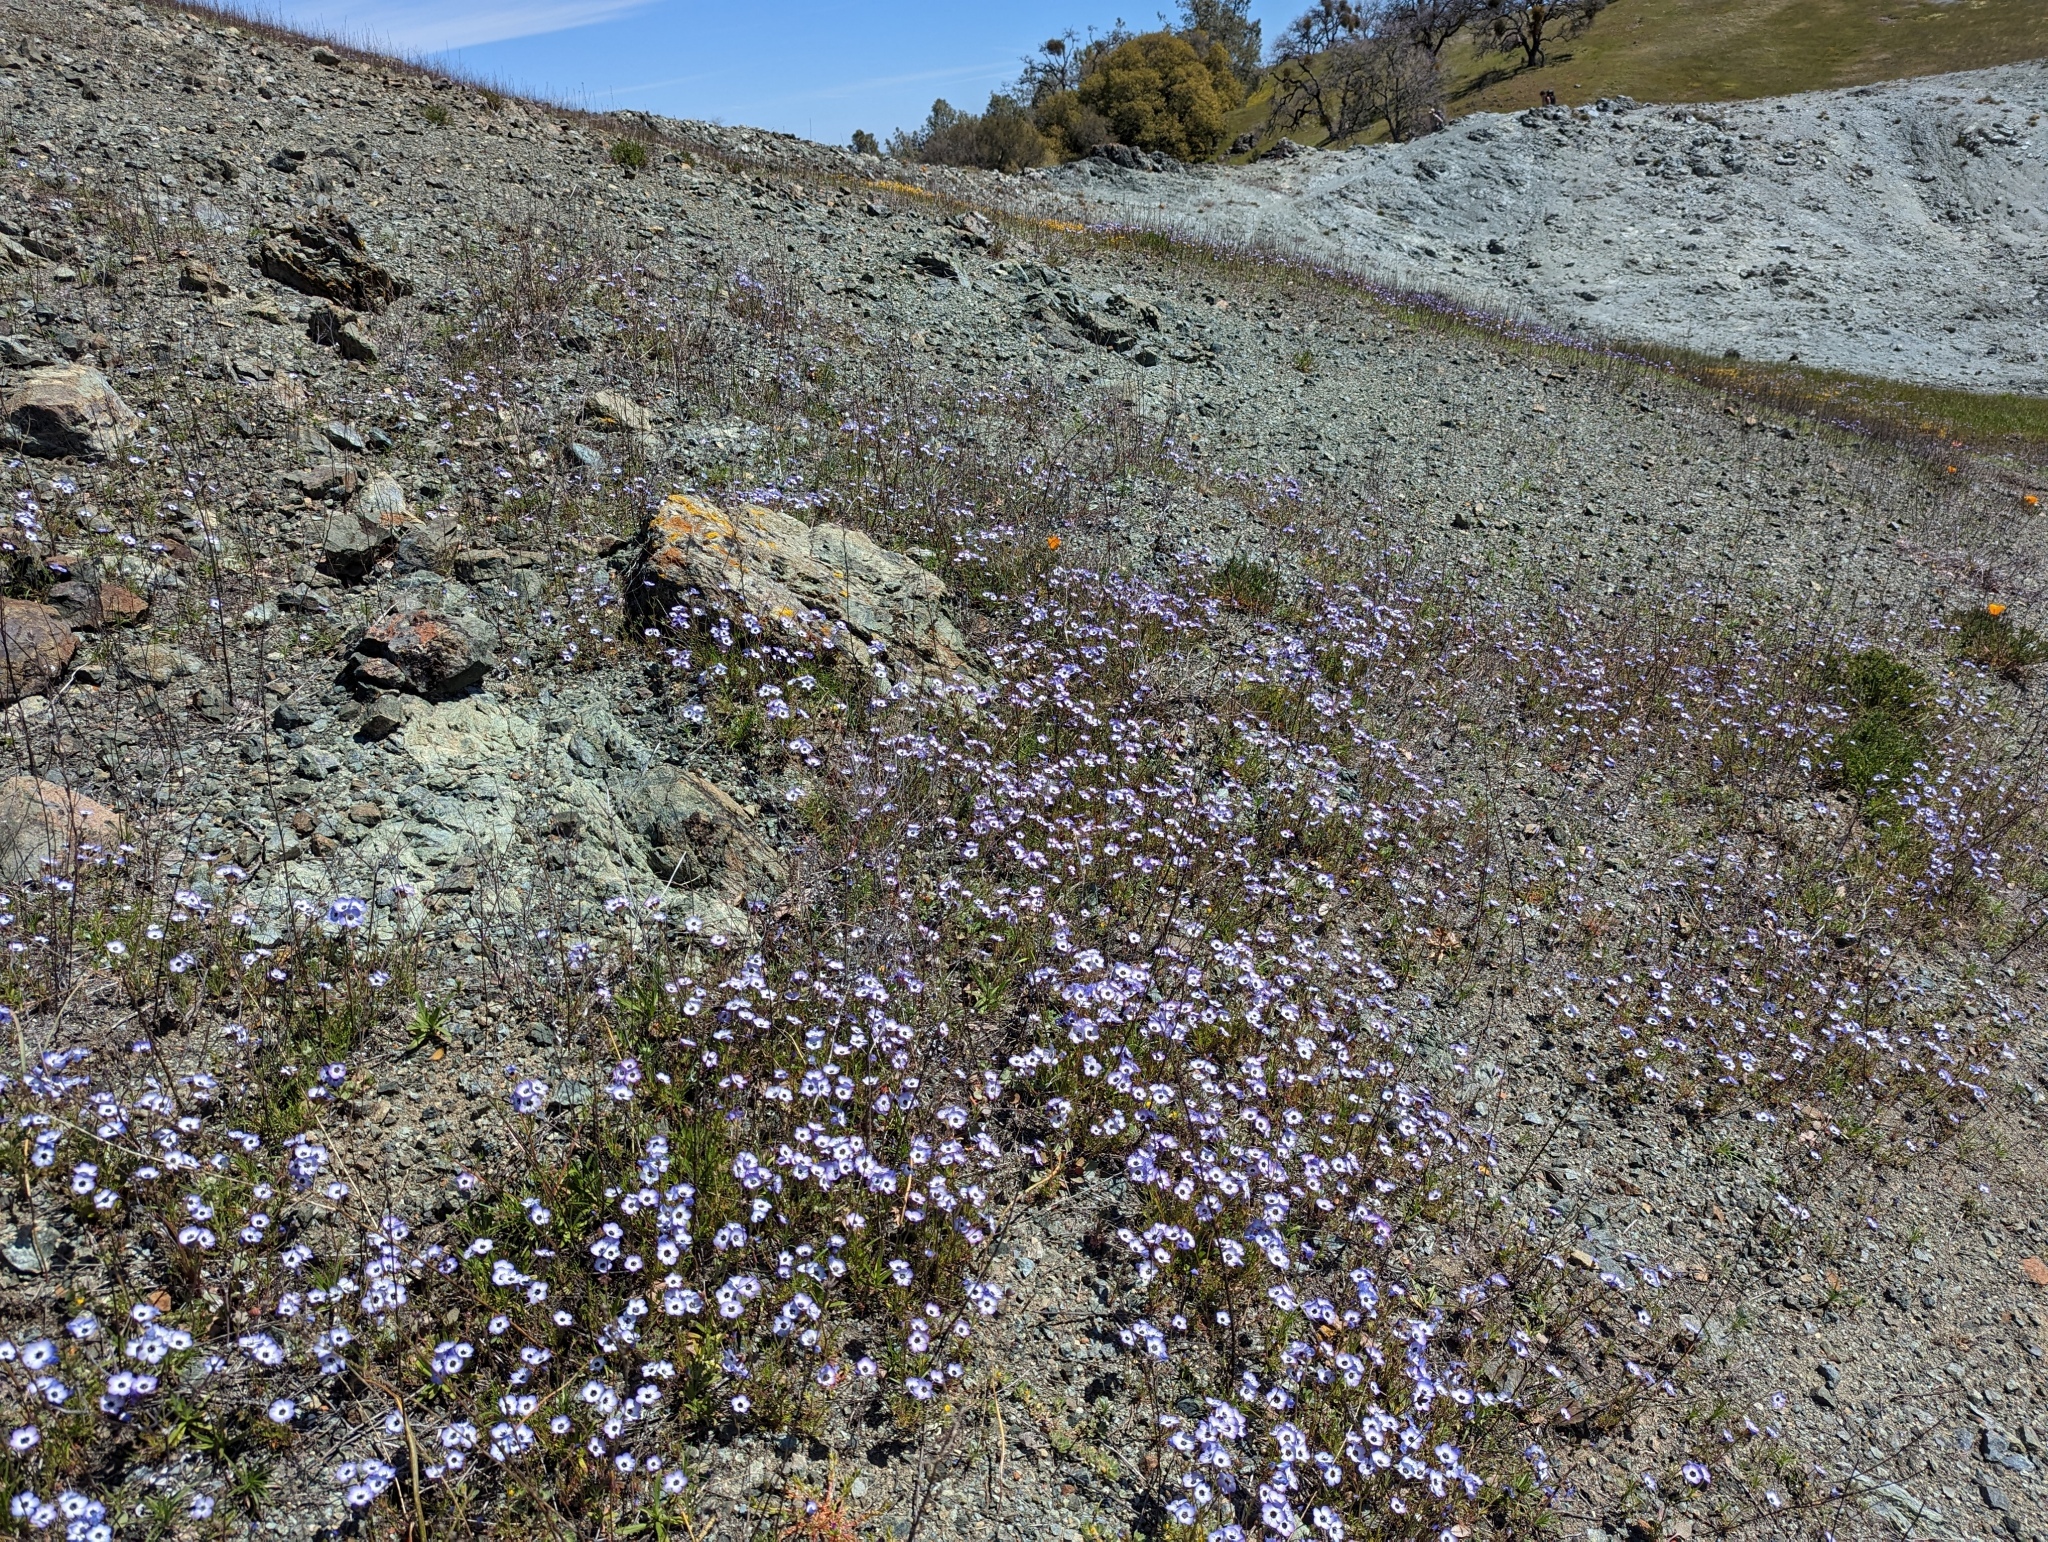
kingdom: Plantae
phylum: Tracheophyta
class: Magnoliopsida
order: Ericales
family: Polemoniaceae
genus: Gilia
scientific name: Gilia tricolor
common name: Bird's-eyes
